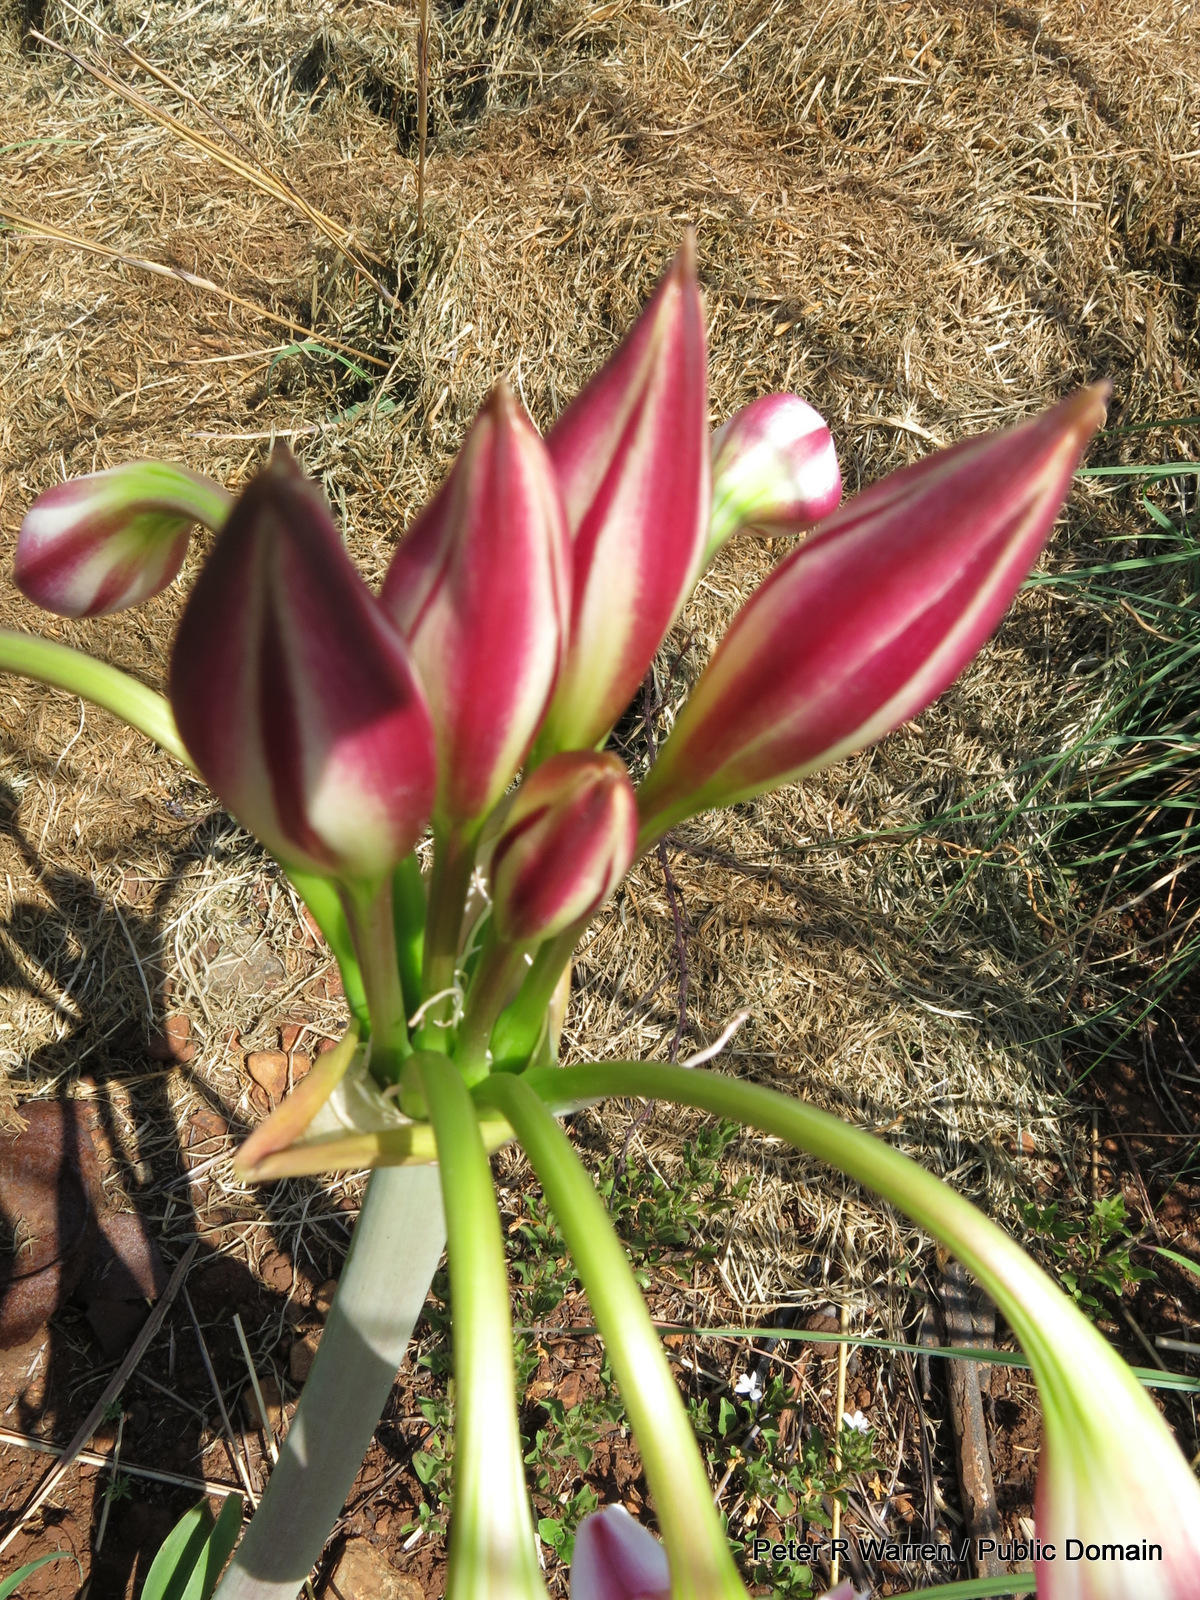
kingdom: Plantae
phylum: Tracheophyta
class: Liliopsida
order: Asparagales
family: Amaryllidaceae
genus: Crinum
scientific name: Crinum macowanii
